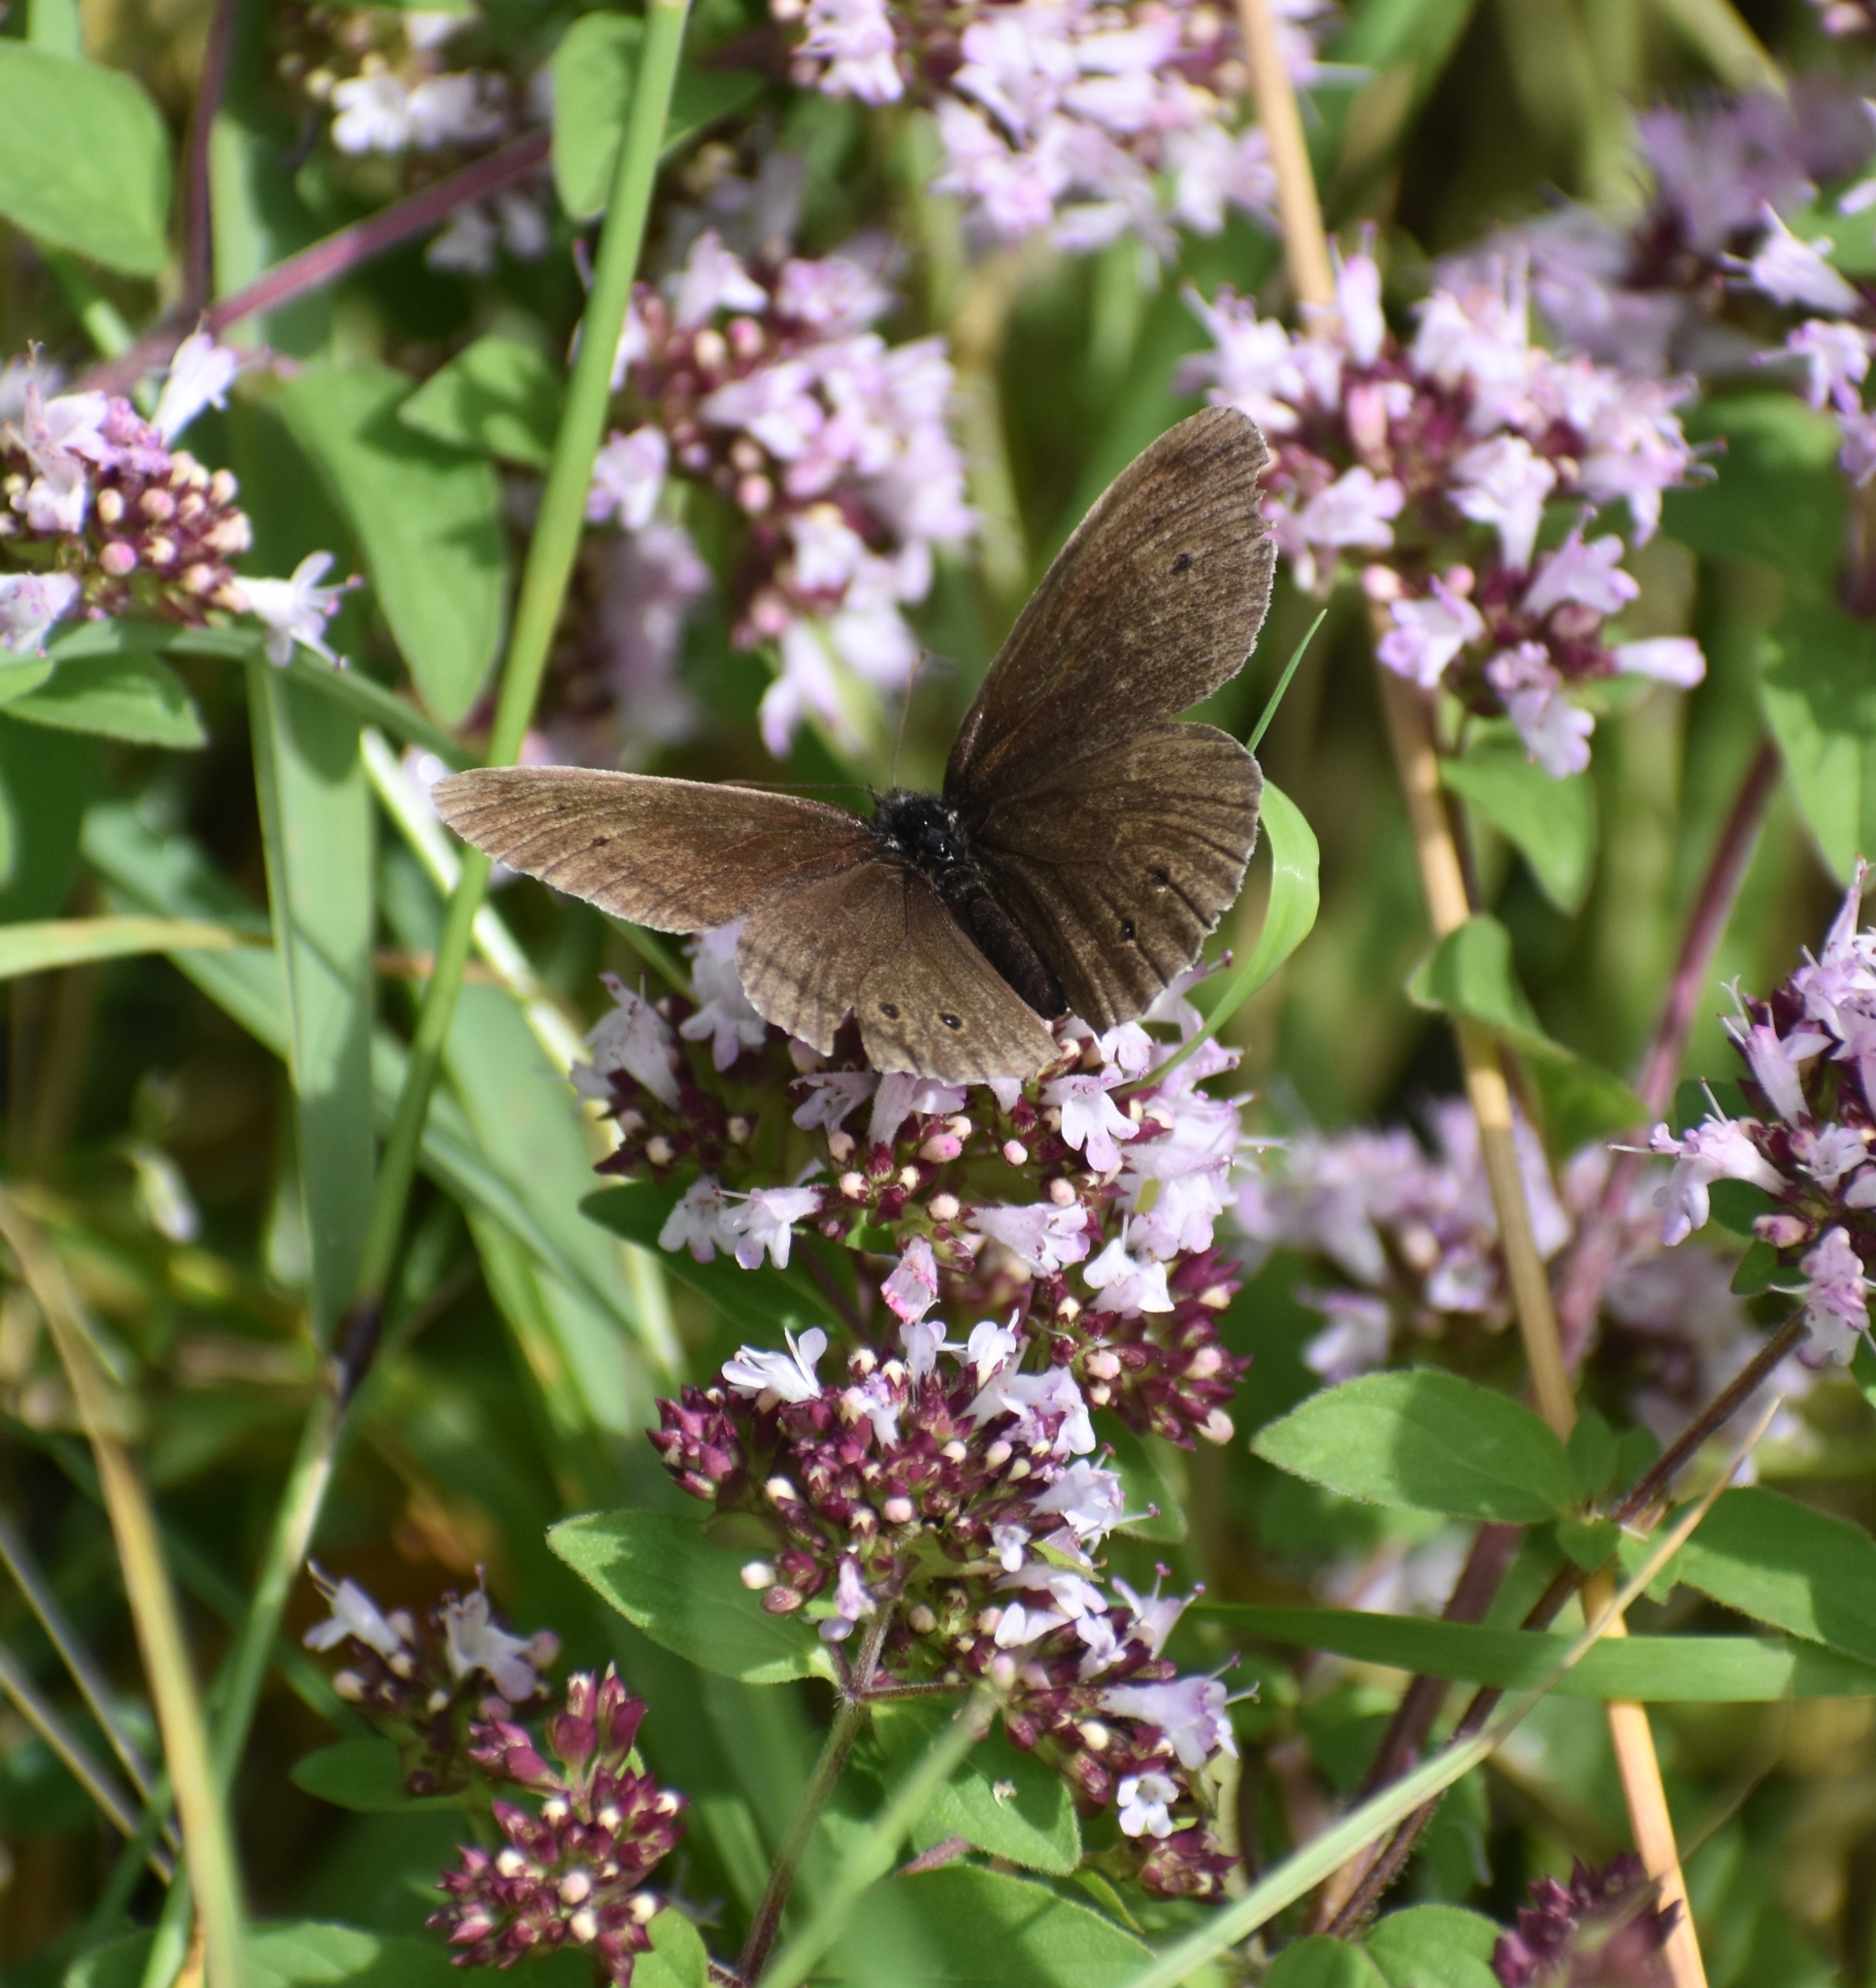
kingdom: Animalia
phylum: Arthropoda
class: Insecta
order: Lepidoptera
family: Nymphalidae
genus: Aphantopus
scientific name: Aphantopus hyperantus
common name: Ringlet
